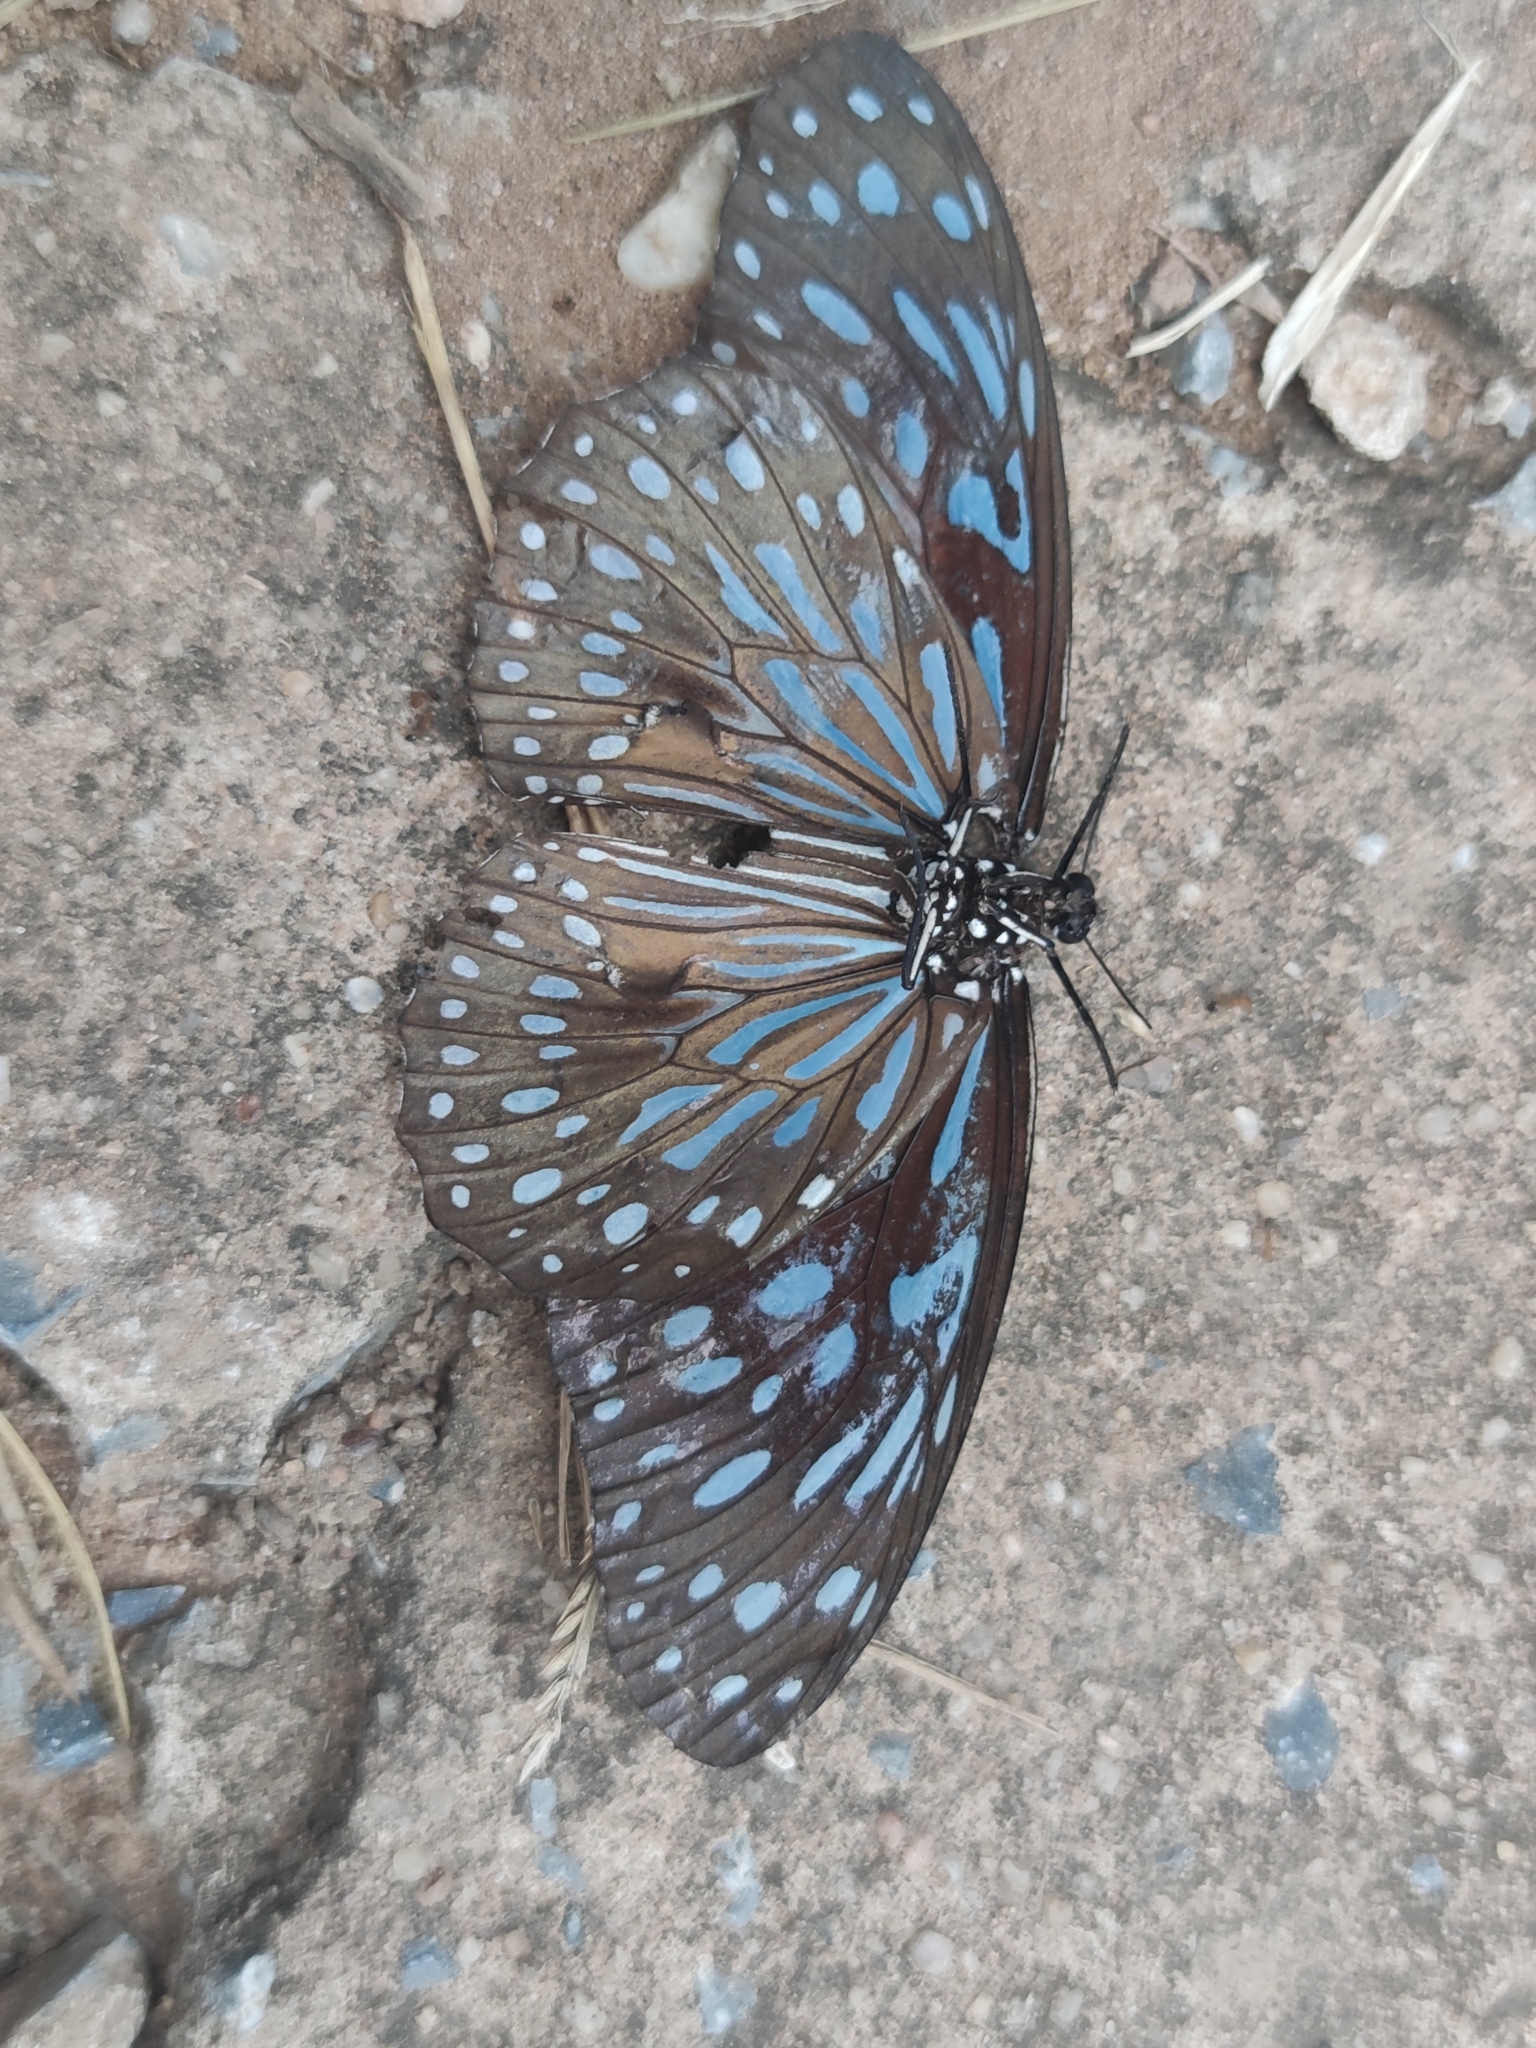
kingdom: Animalia
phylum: Arthropoda
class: Insecta
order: Lepidoptera
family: Nymphalidae
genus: Tirumala
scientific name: Tirumala septentrionis
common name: Dark blue tiger butterfly
